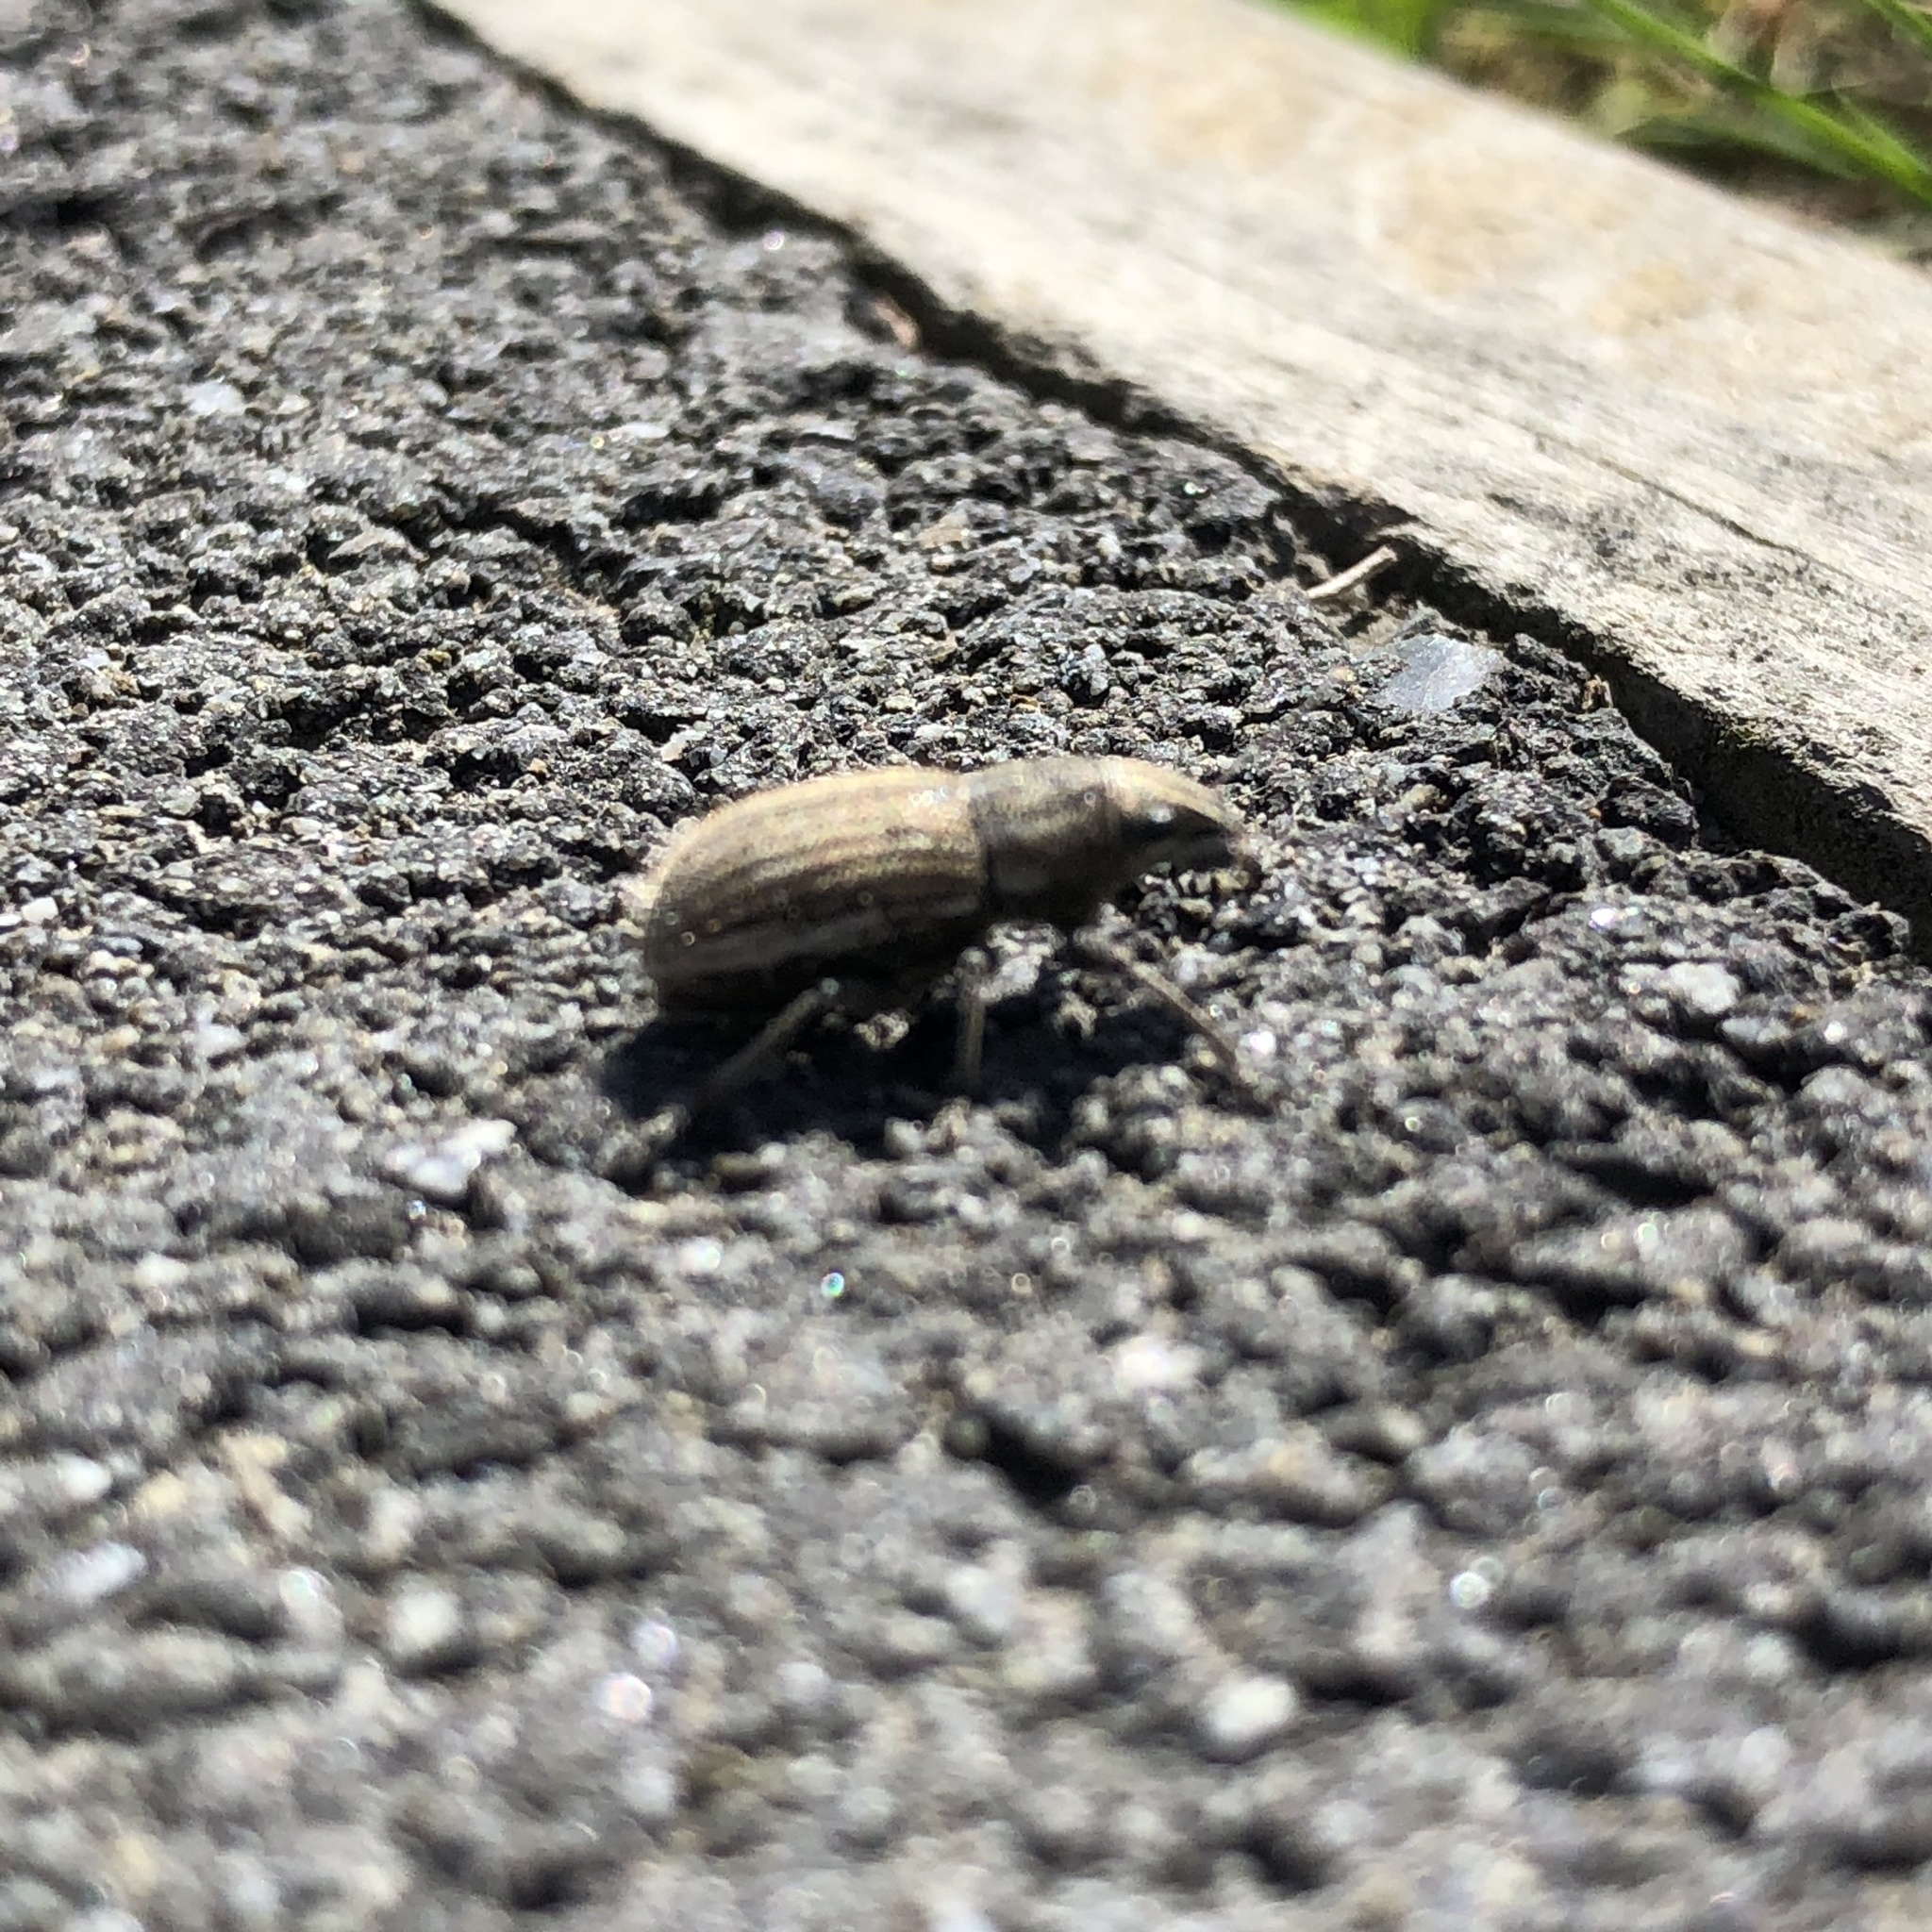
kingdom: Animalia
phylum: Arthropoda
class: Insecta
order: Coleoptera
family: Curculionidae
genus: Naupactus
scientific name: Naupactus leucoloma
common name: Whitefringed beetle
